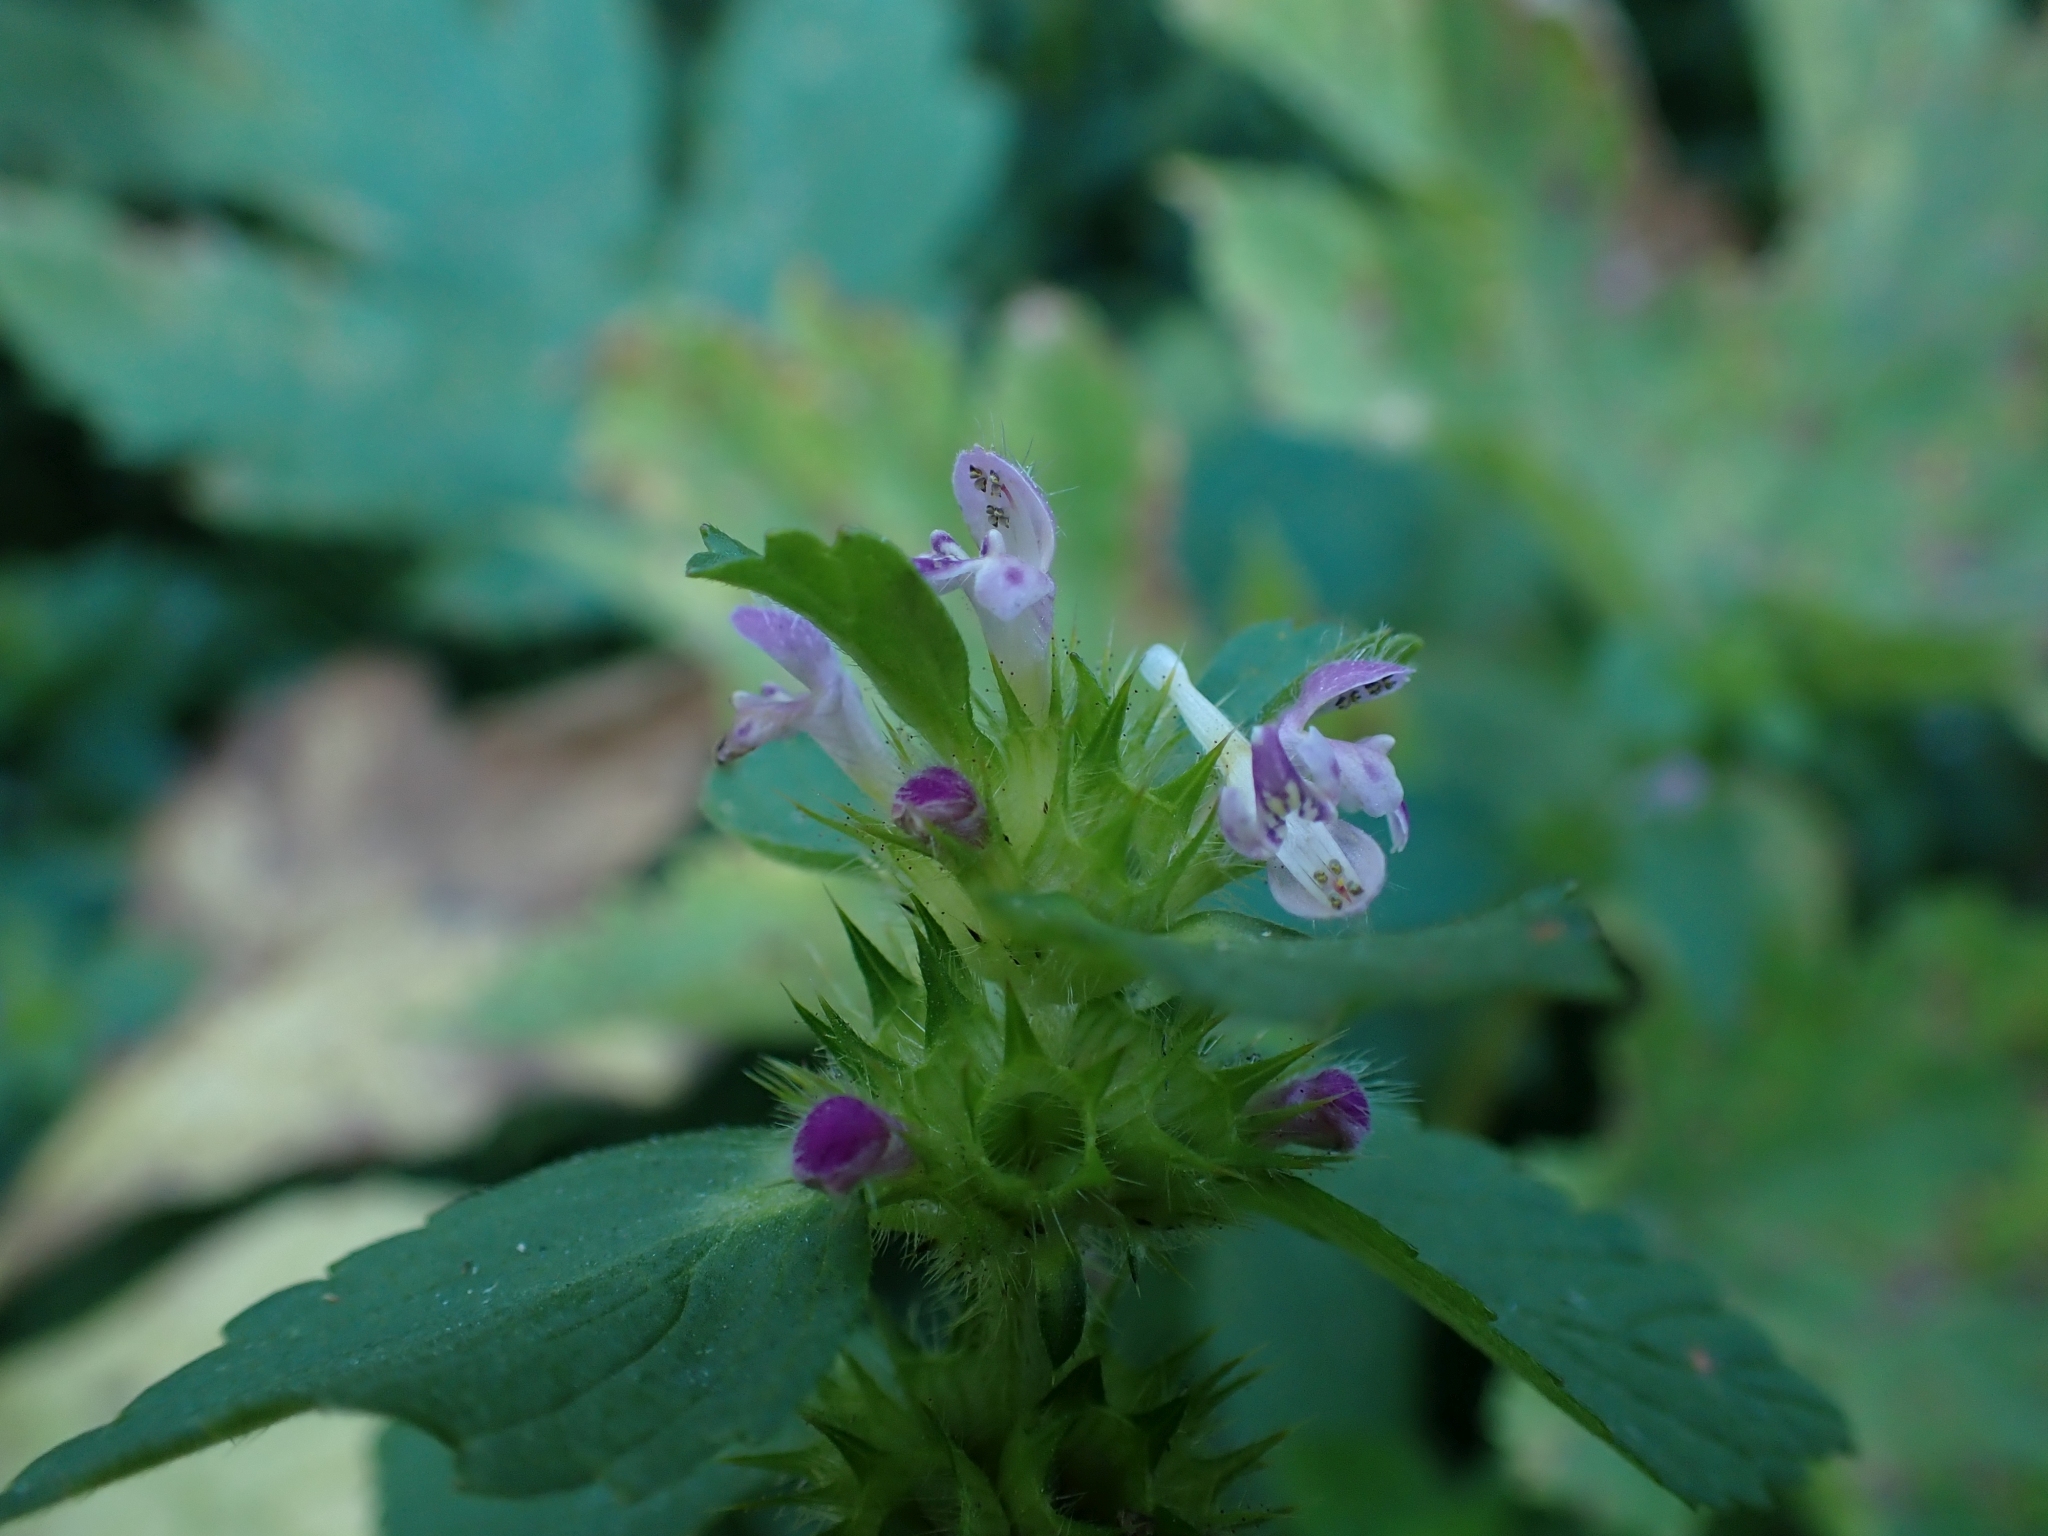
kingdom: Plantae
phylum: Tracheophyta
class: Magnoliopsida
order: Lamiales
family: Lamiaceae
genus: Galeopsis
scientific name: Galeopsis bifida
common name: Bifid hemp-nettle
